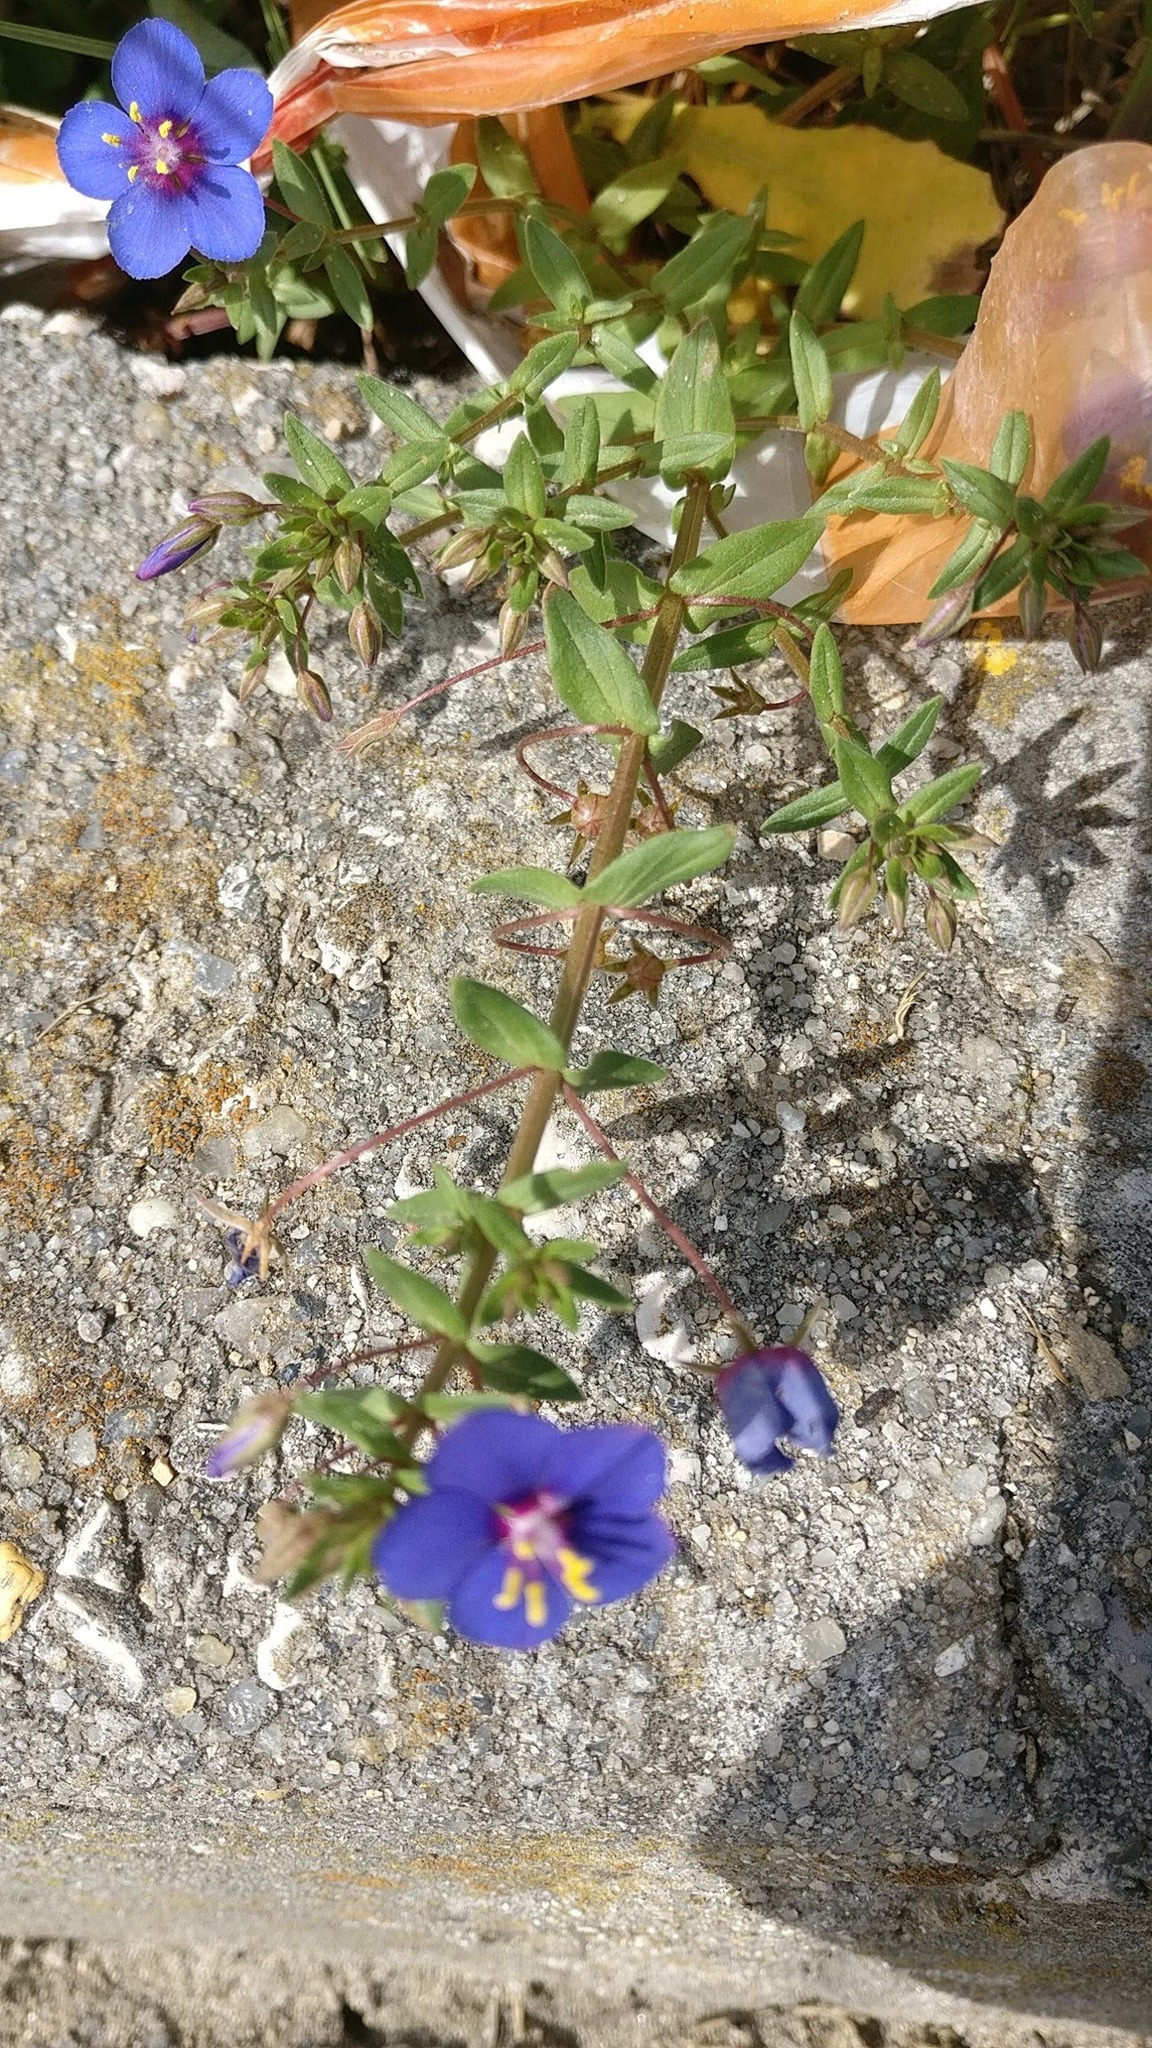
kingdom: Plantae
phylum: Tracheophyta
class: Magnoliopsida
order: Ericales
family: Primulaceae
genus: Lysimachia
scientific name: Lysimachia monelli
